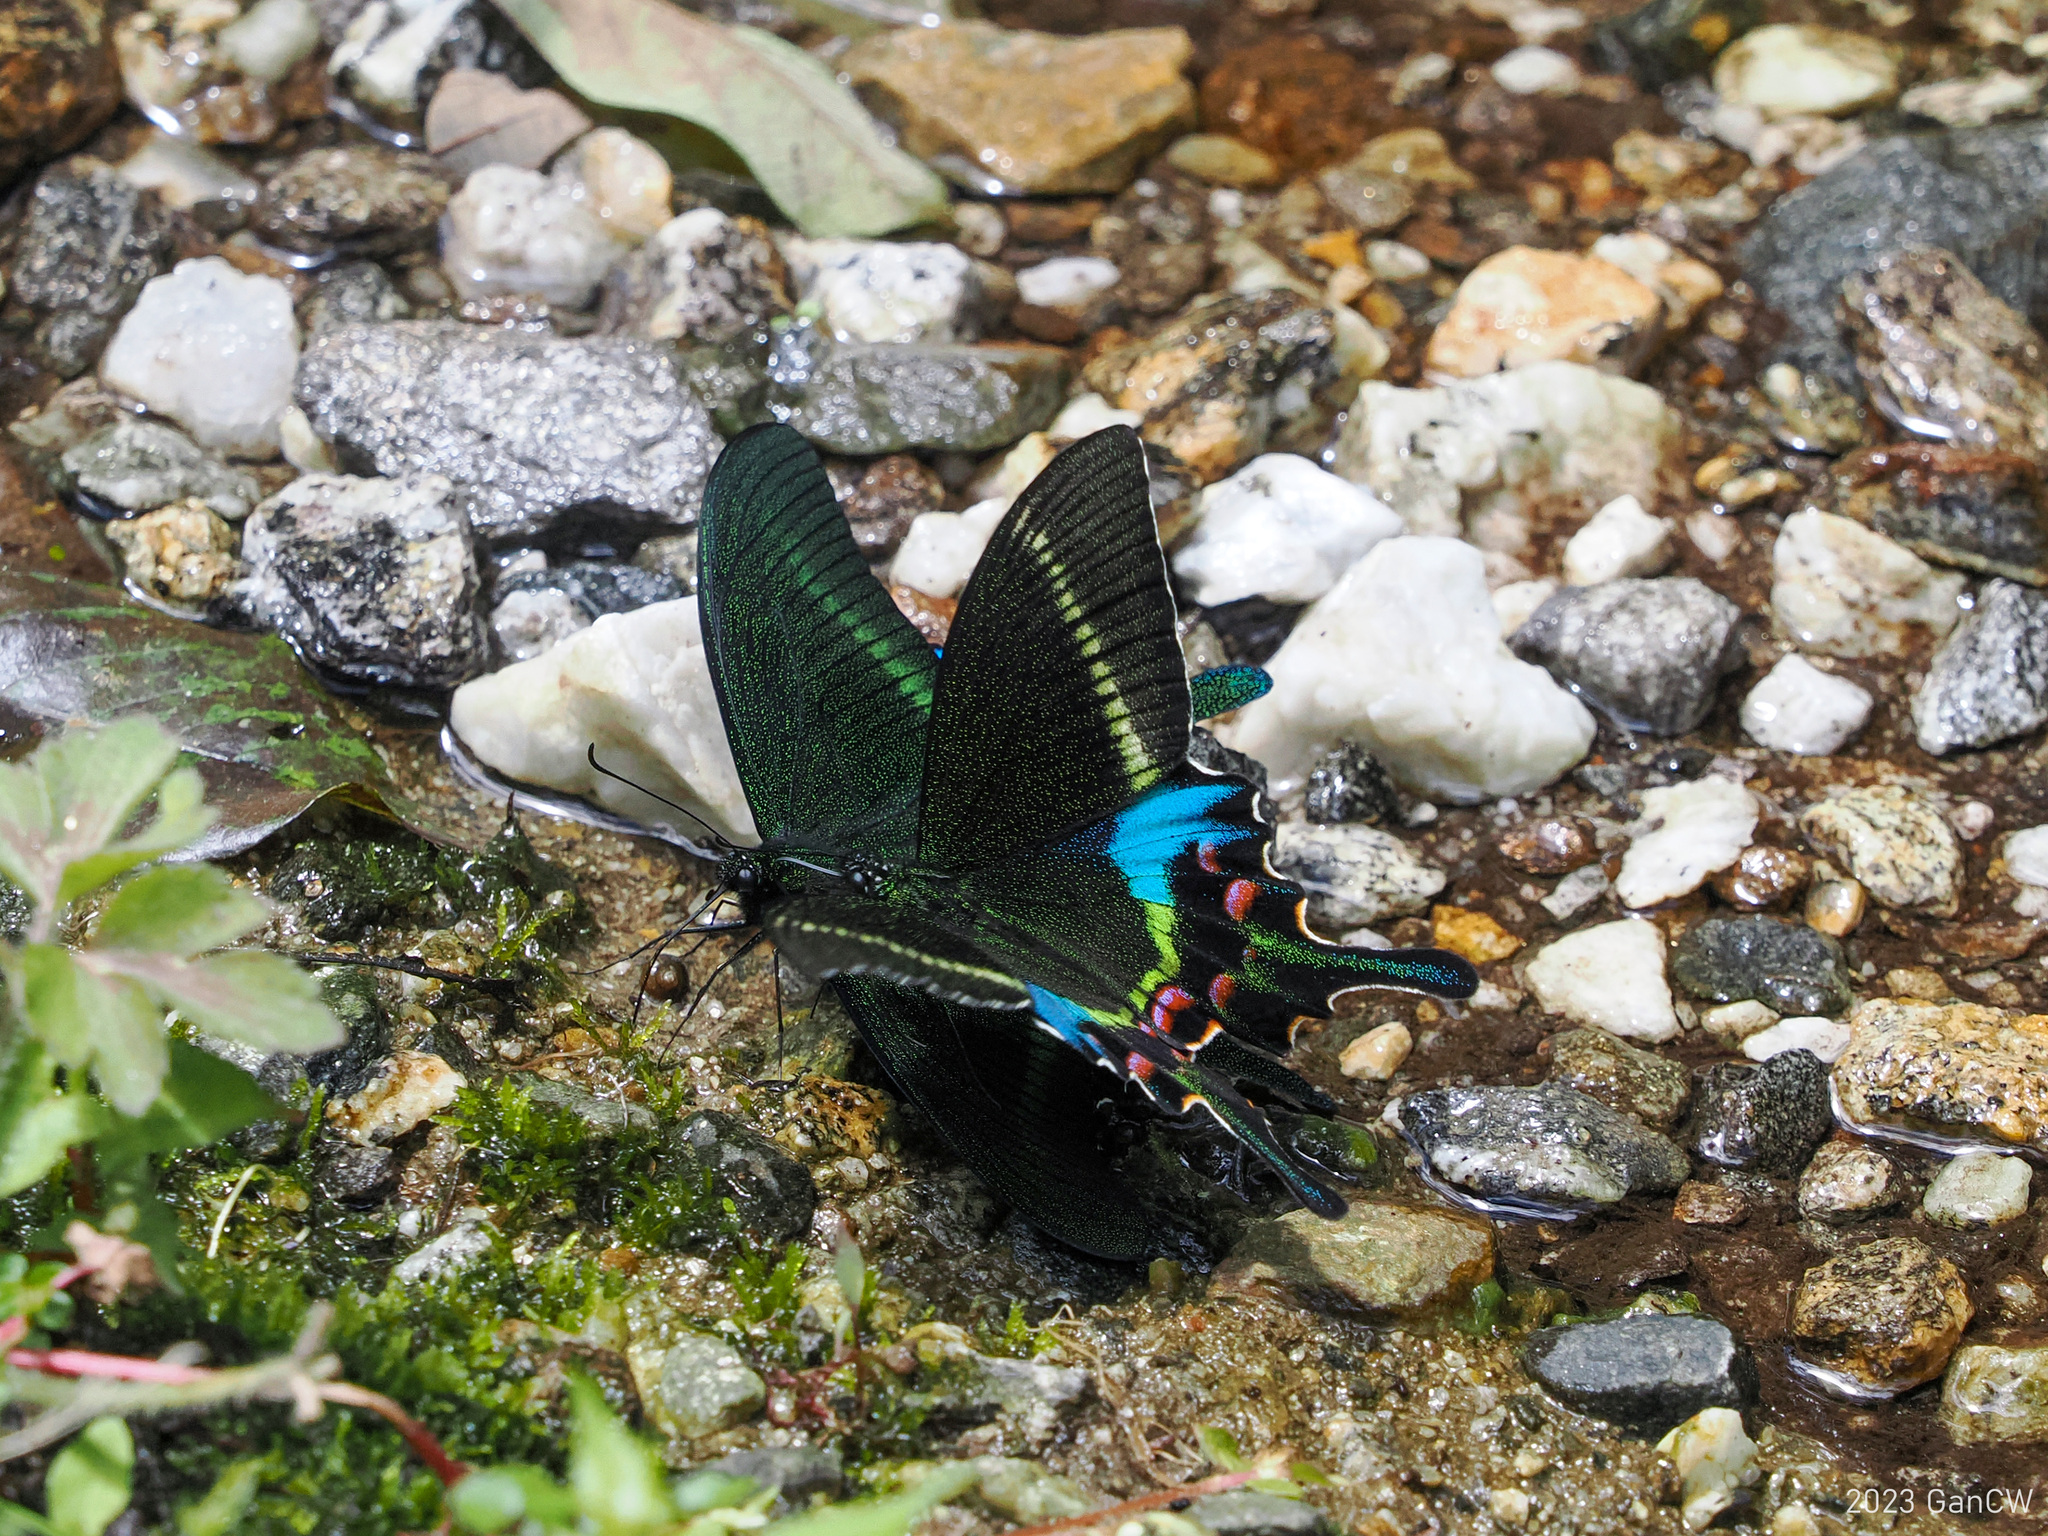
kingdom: Animalia
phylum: Arthropoda
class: Insecta
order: Lepidoptera
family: Papilionidae
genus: Papilio
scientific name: Papilio krishna
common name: Krishna peacock
